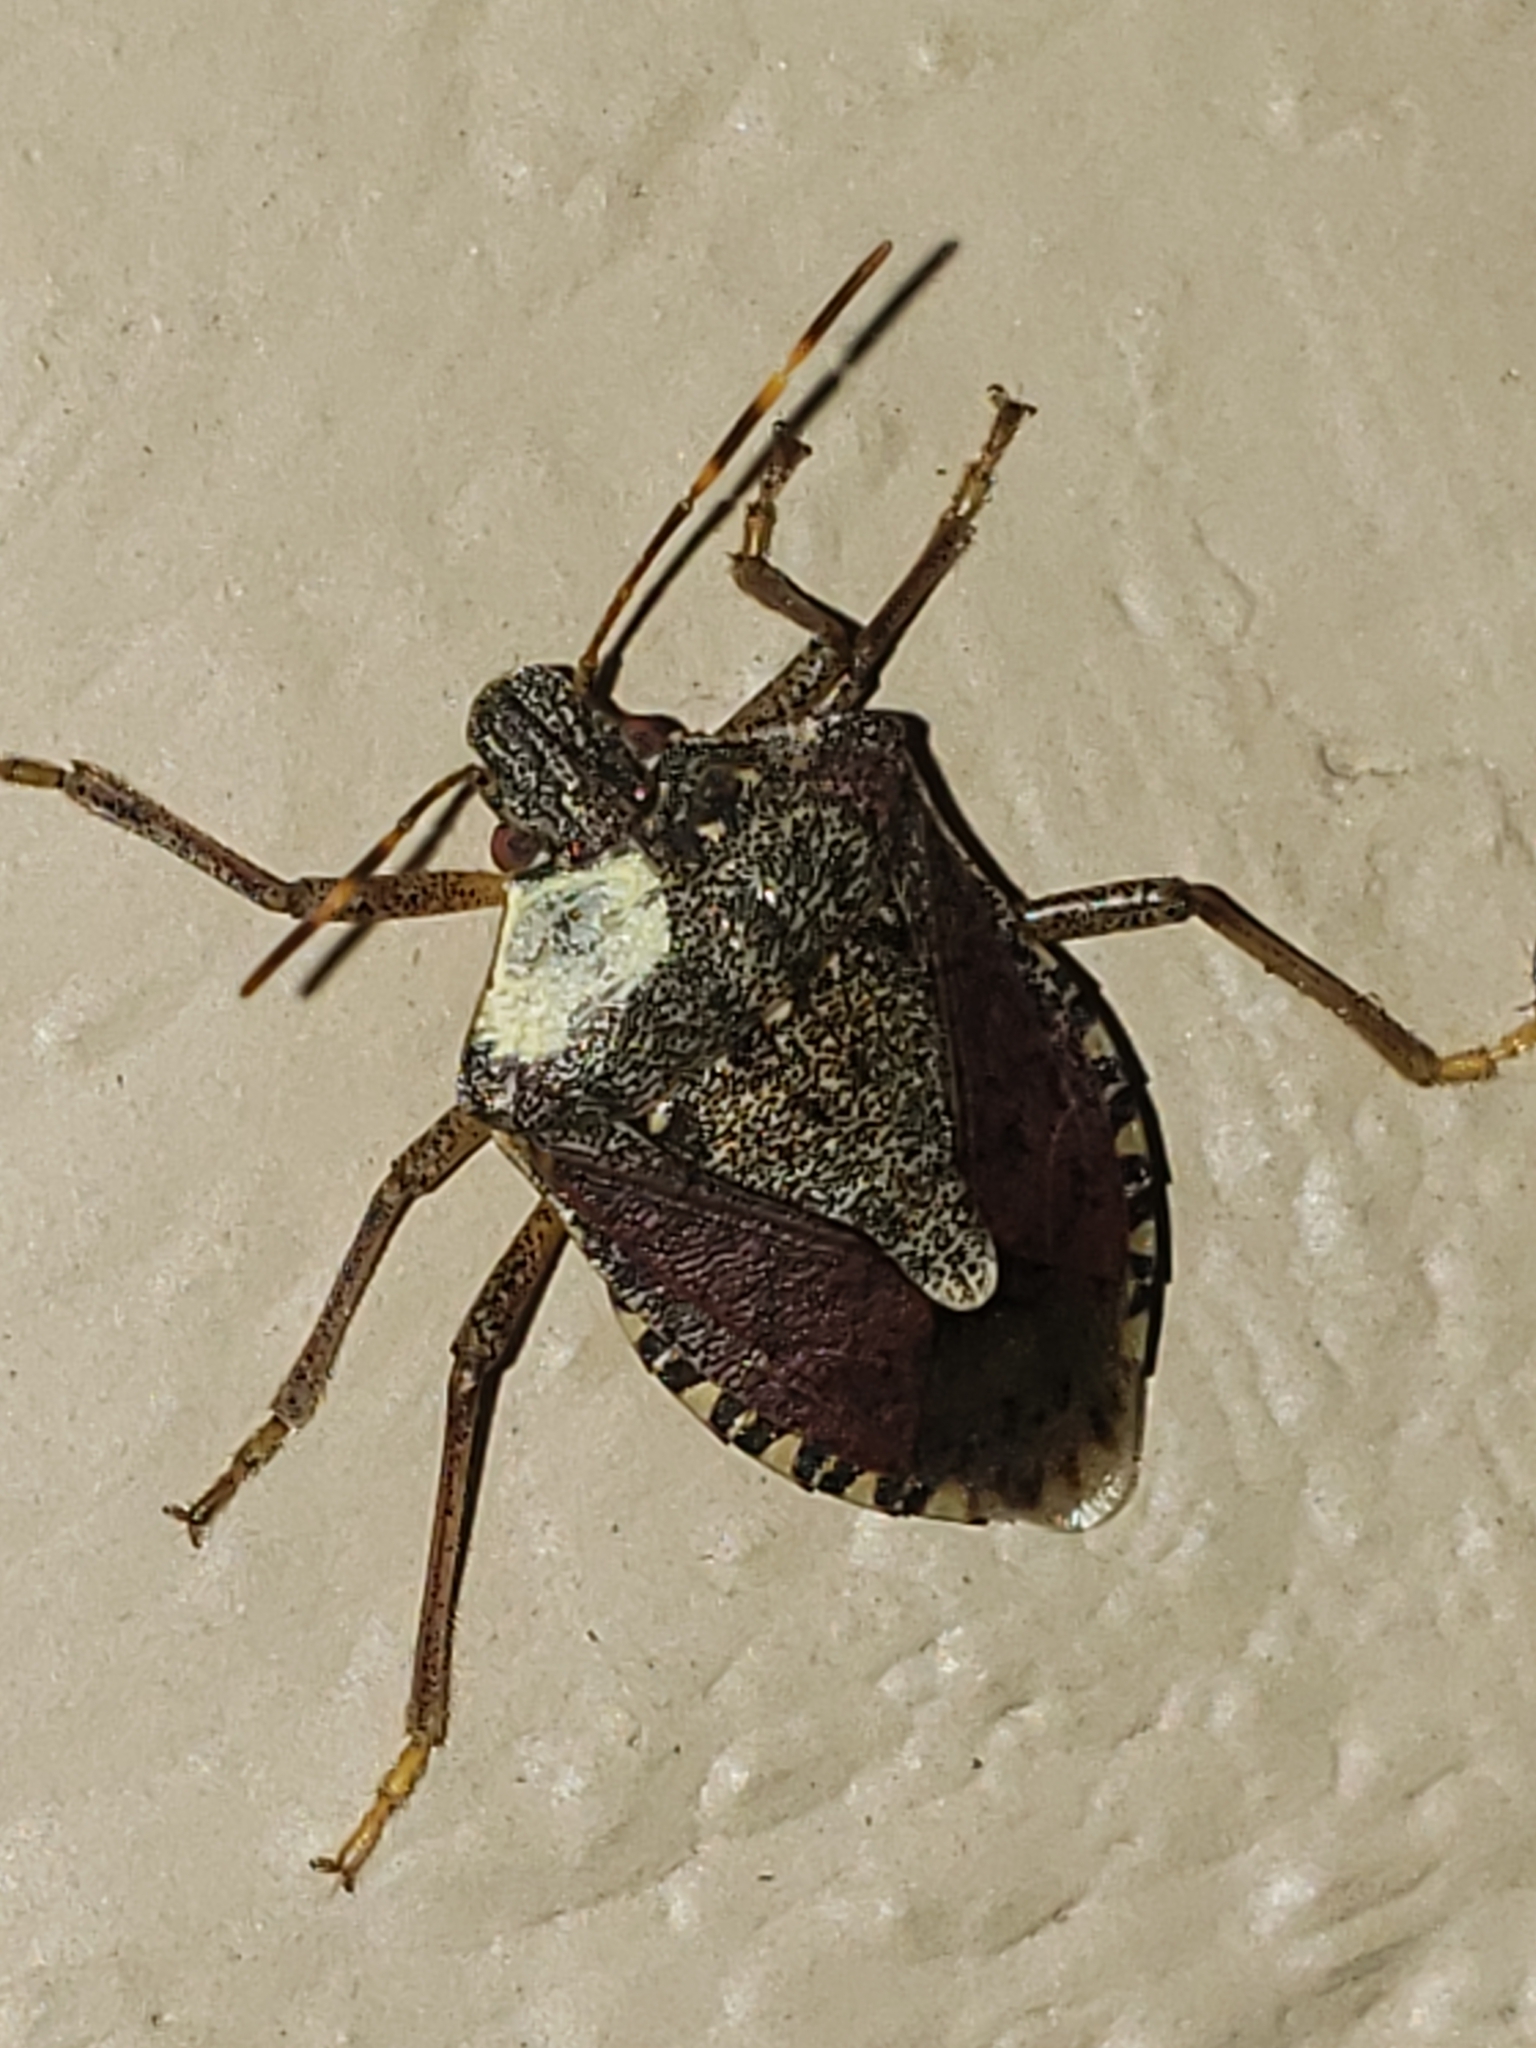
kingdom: Animalia
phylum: Arthropoda
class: Insecta
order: Hemiptera
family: Pentatomidae
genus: Halyomorpha
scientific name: Halyomorpha halys
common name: Brown marmorated stink bug
